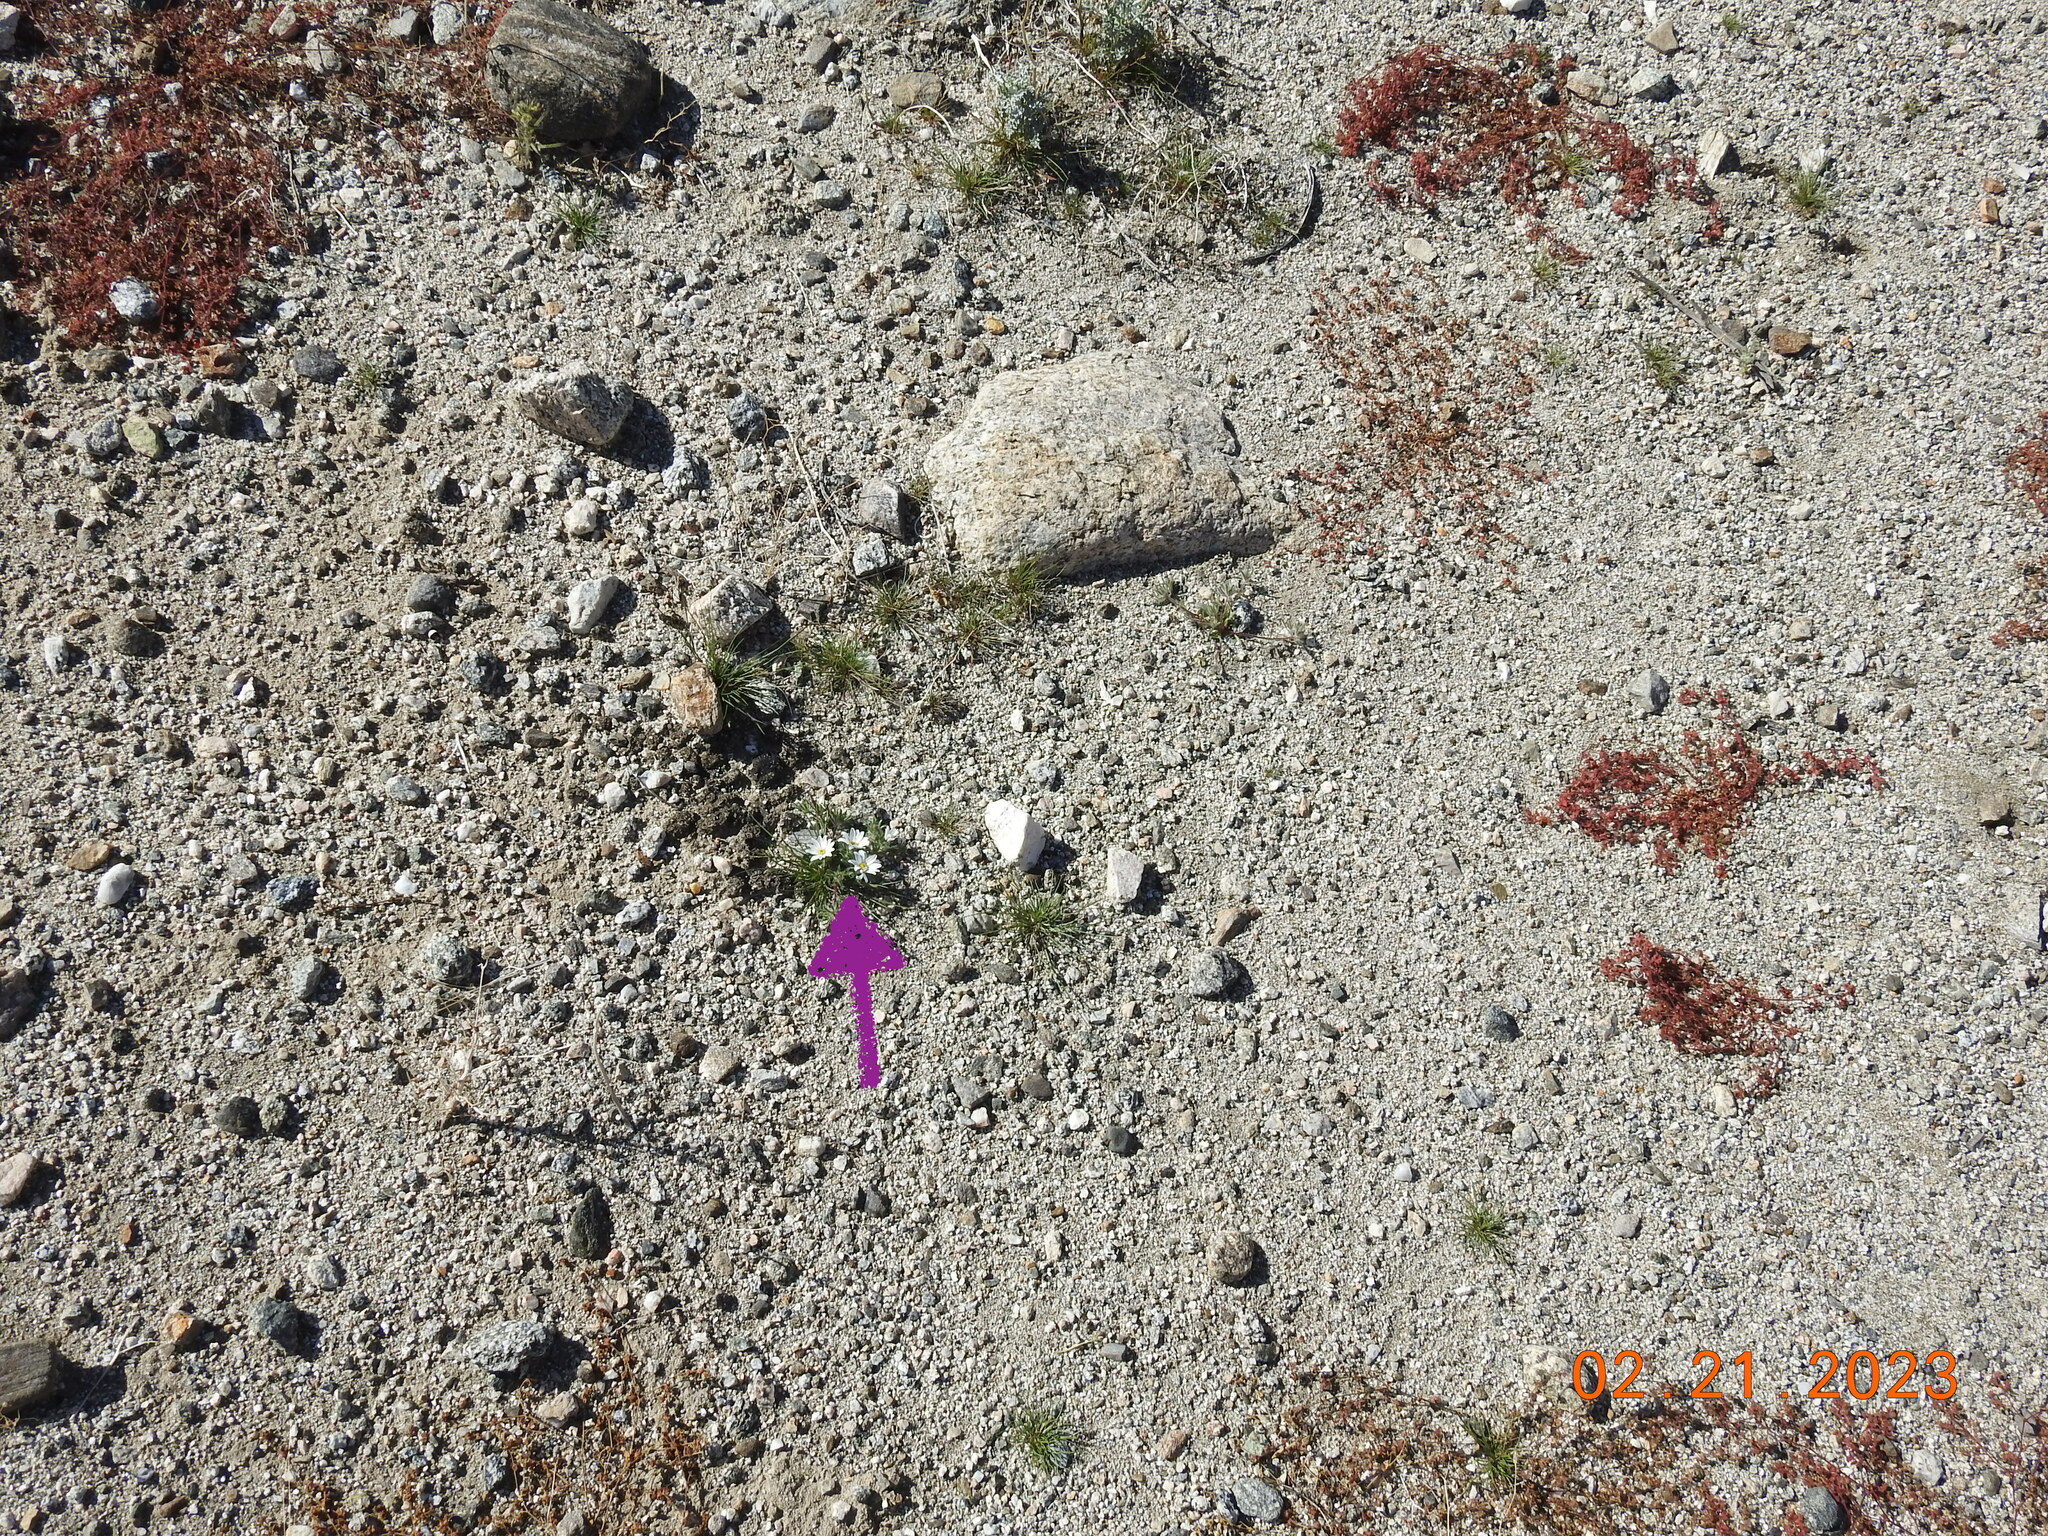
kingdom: Plantae
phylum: Tracheophyta
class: Magnoliopsida
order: Asterales
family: Asteraceae
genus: Monoptilon
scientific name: Monoptilon bellioides
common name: Bristly desertstar
